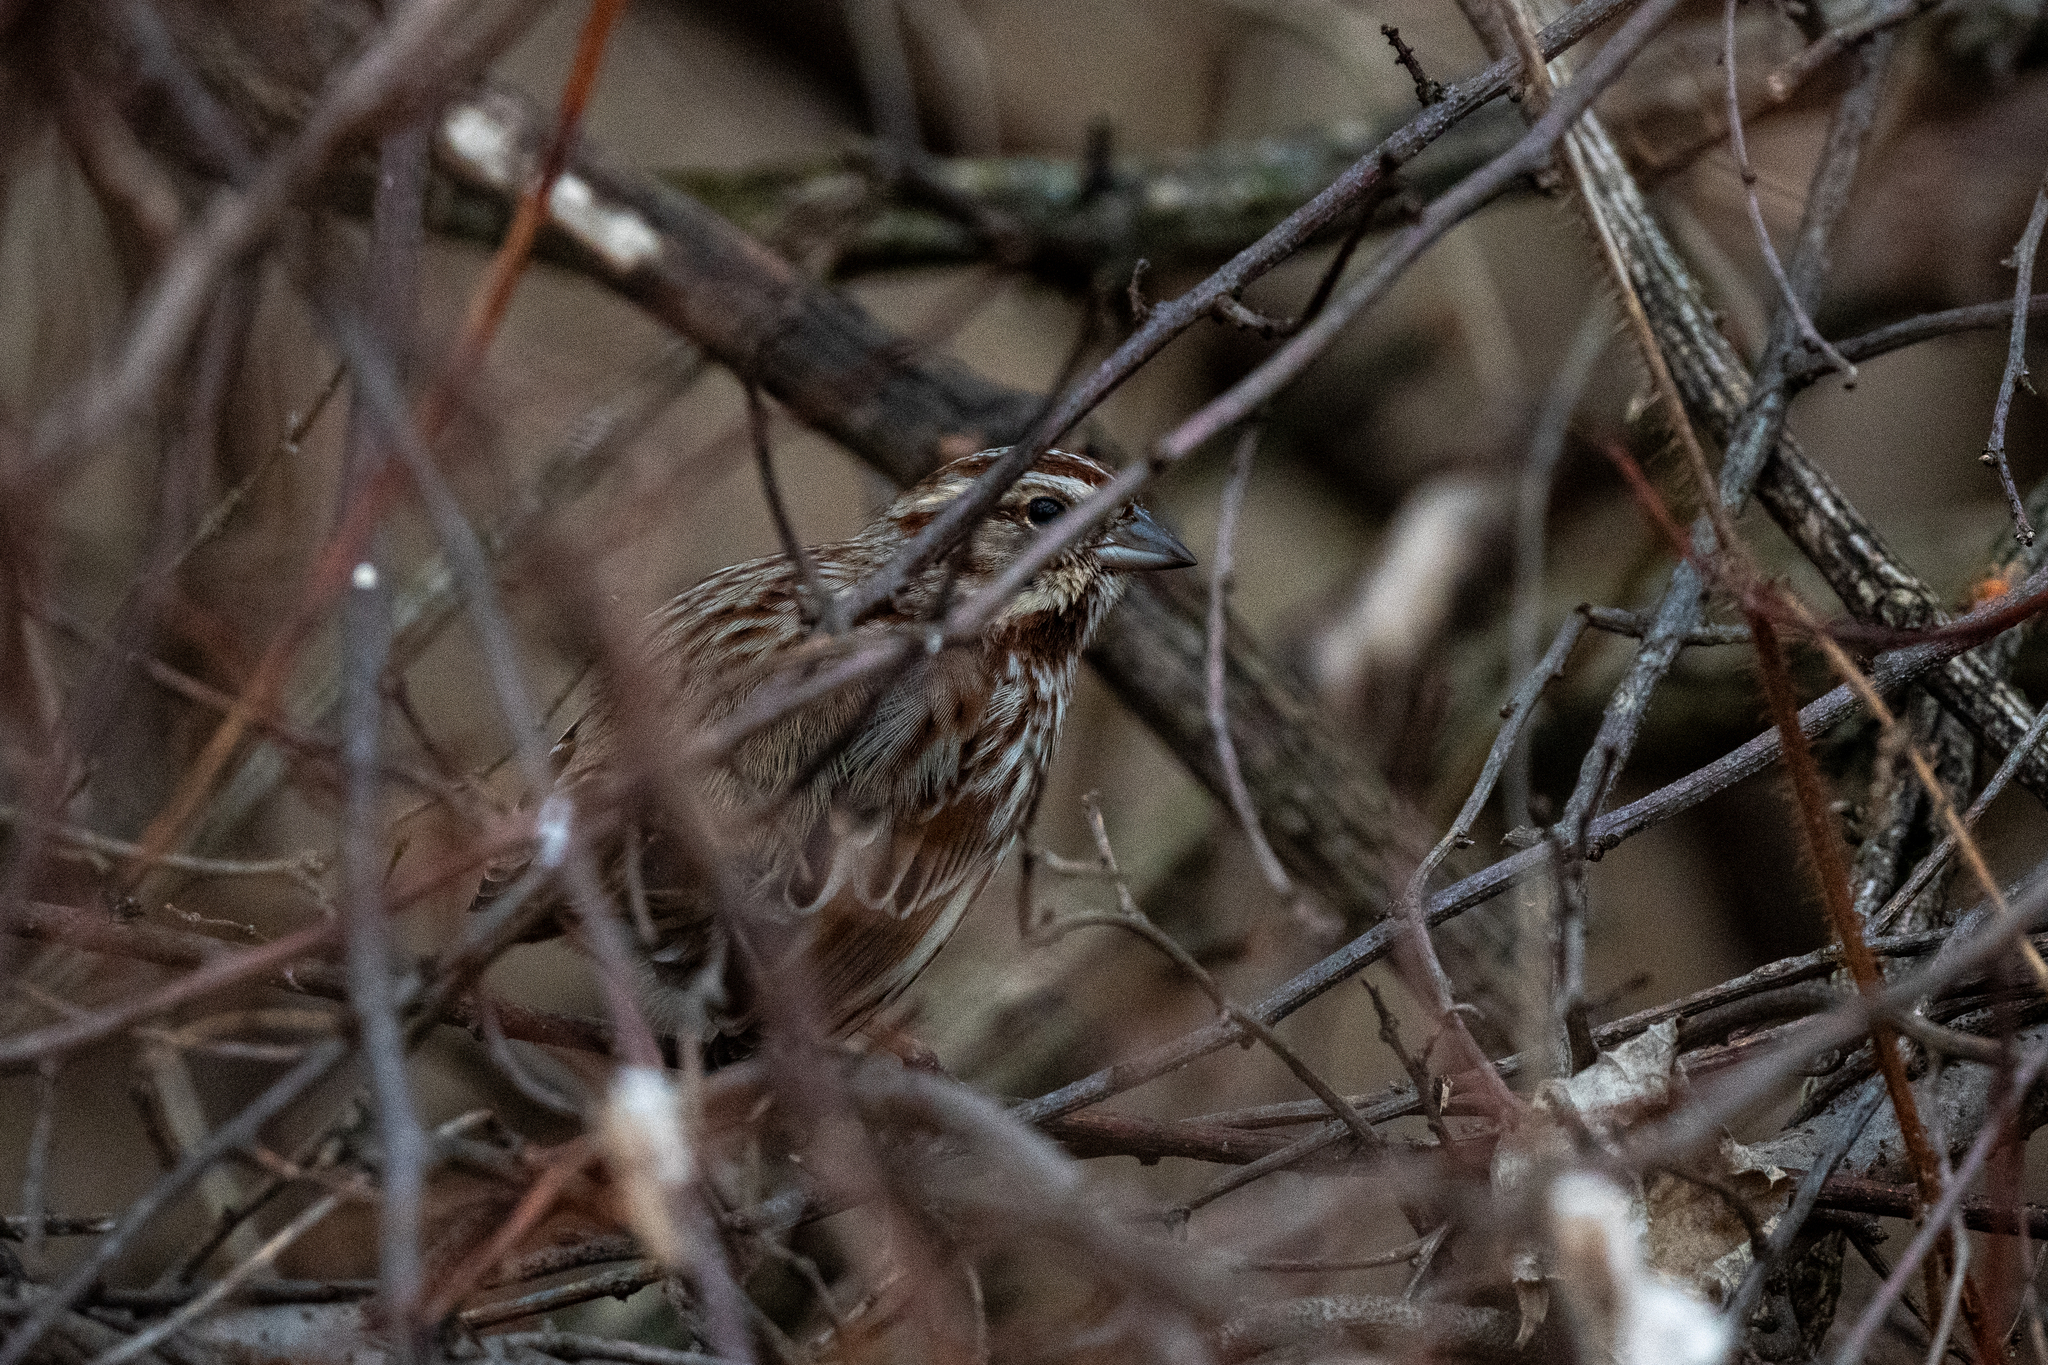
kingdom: Animalia
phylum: Chordata
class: Aves
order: Passeriformes
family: Passerellidae
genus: Melospiza
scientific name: Melospiza melodia
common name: Song sparrow
